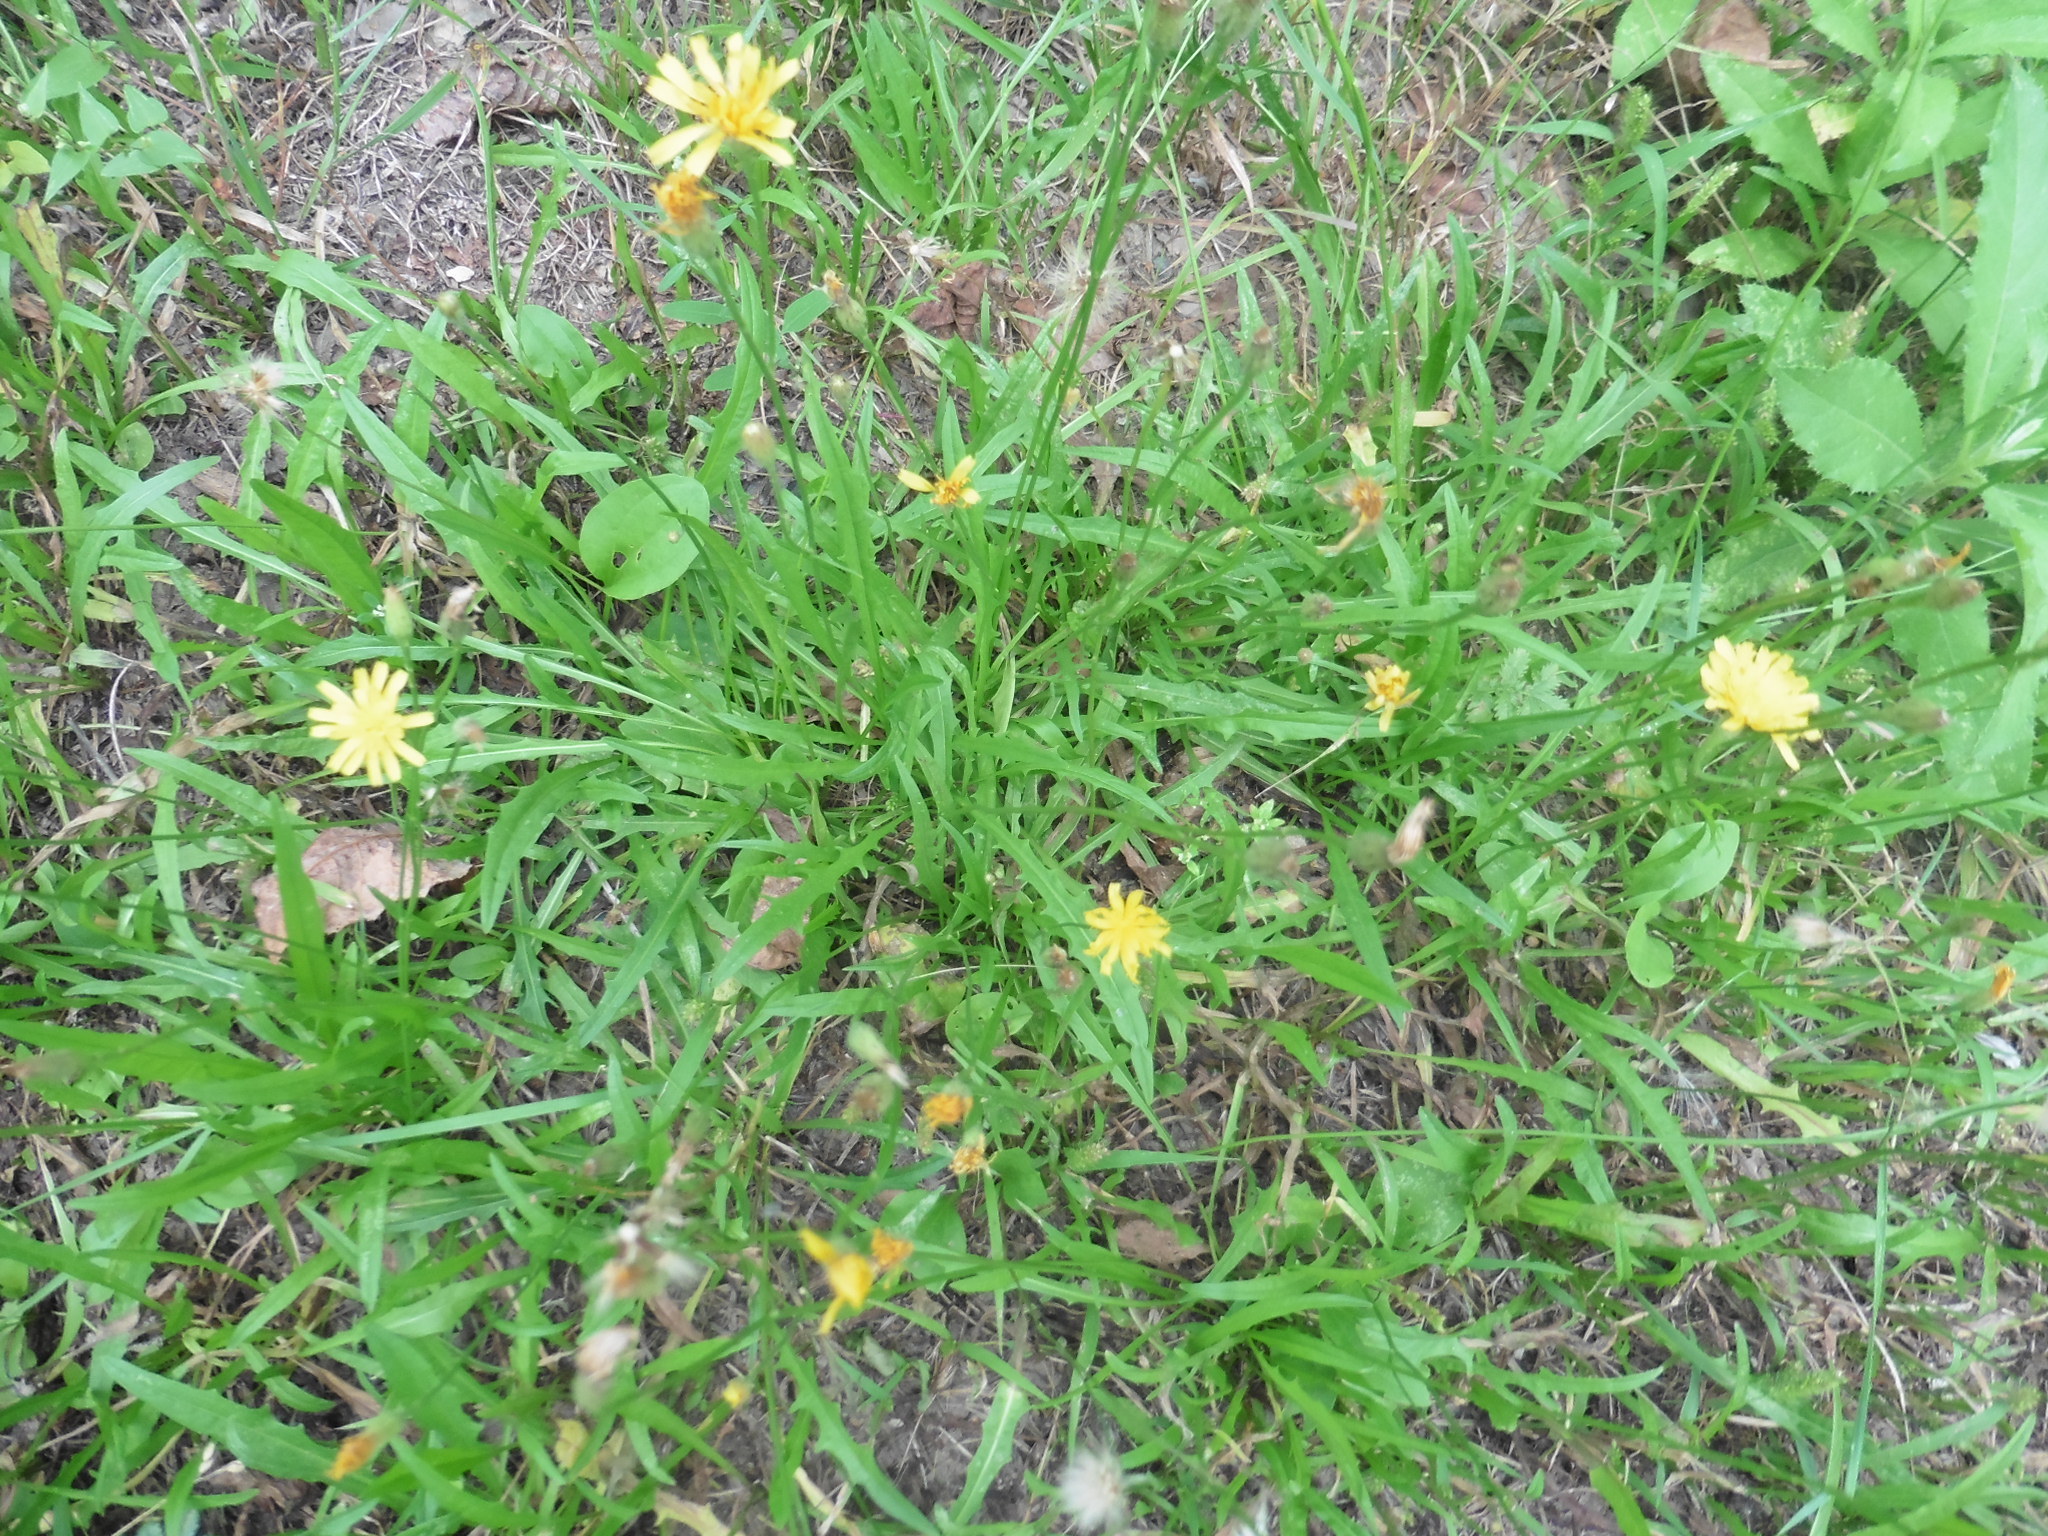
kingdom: Plantae
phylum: Tracheophyta
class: Magnoliopsida
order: Asterales
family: Asteraceae
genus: Scorzoneroides
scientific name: Scorzoneroides autumnalis
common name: Autumn hawkbit
